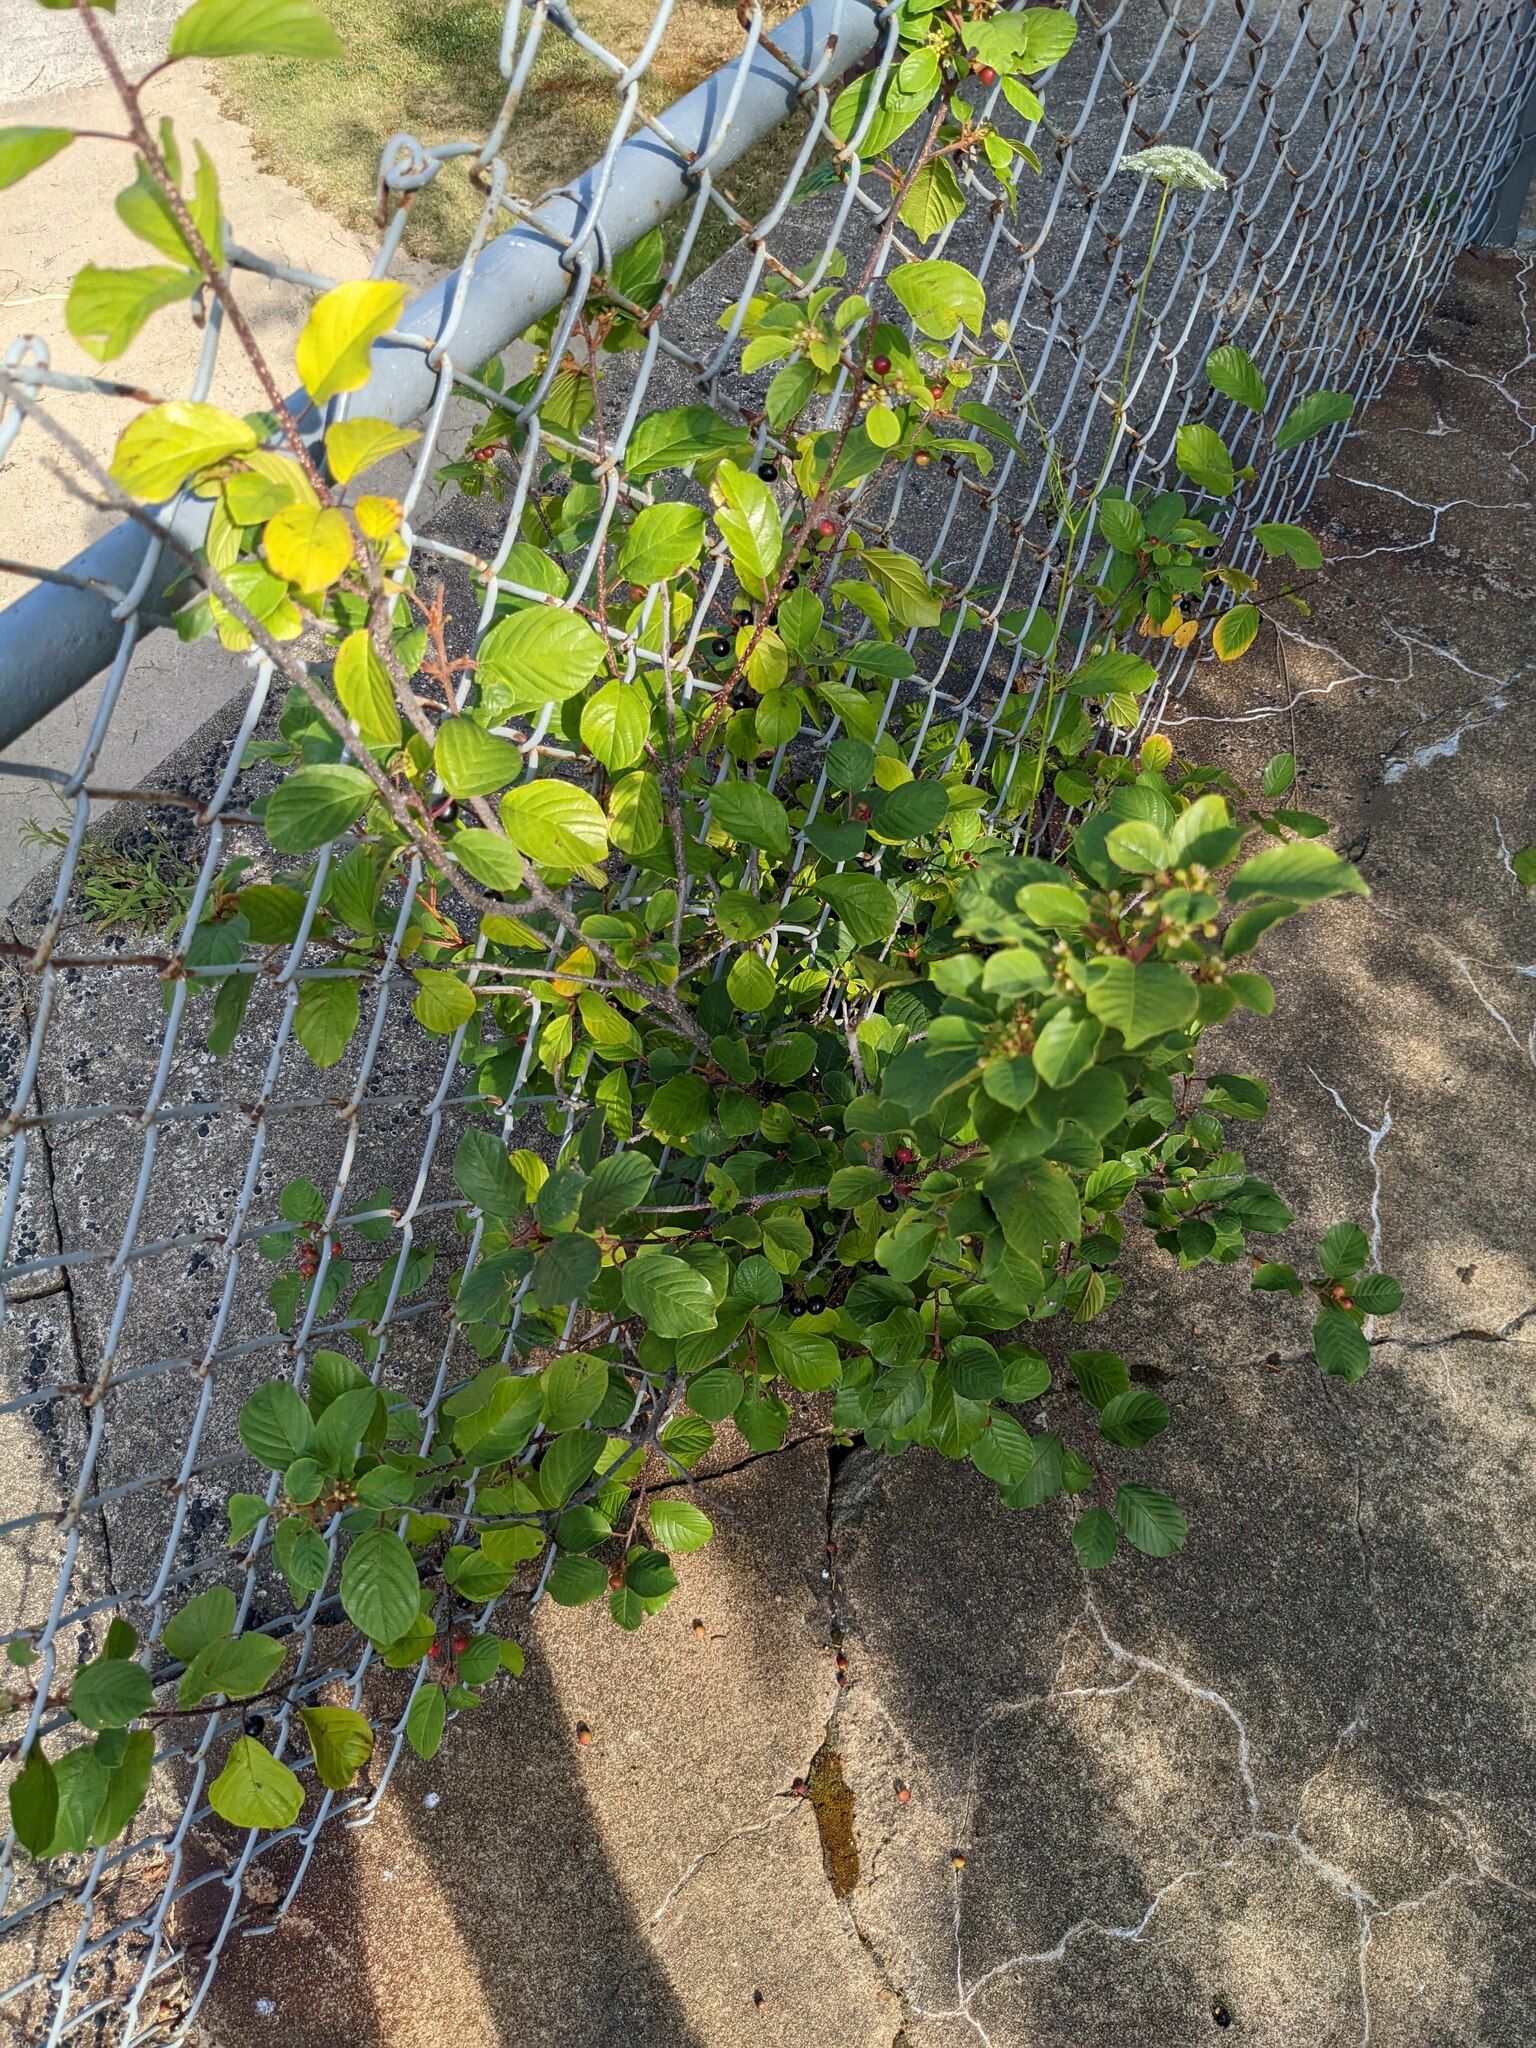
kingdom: Plantae
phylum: Tracheophyta
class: Magnoliopsida
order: Rosales
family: Rhamnaceae
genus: Frangula
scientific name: Frangula alnus
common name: Alder buckthorn
